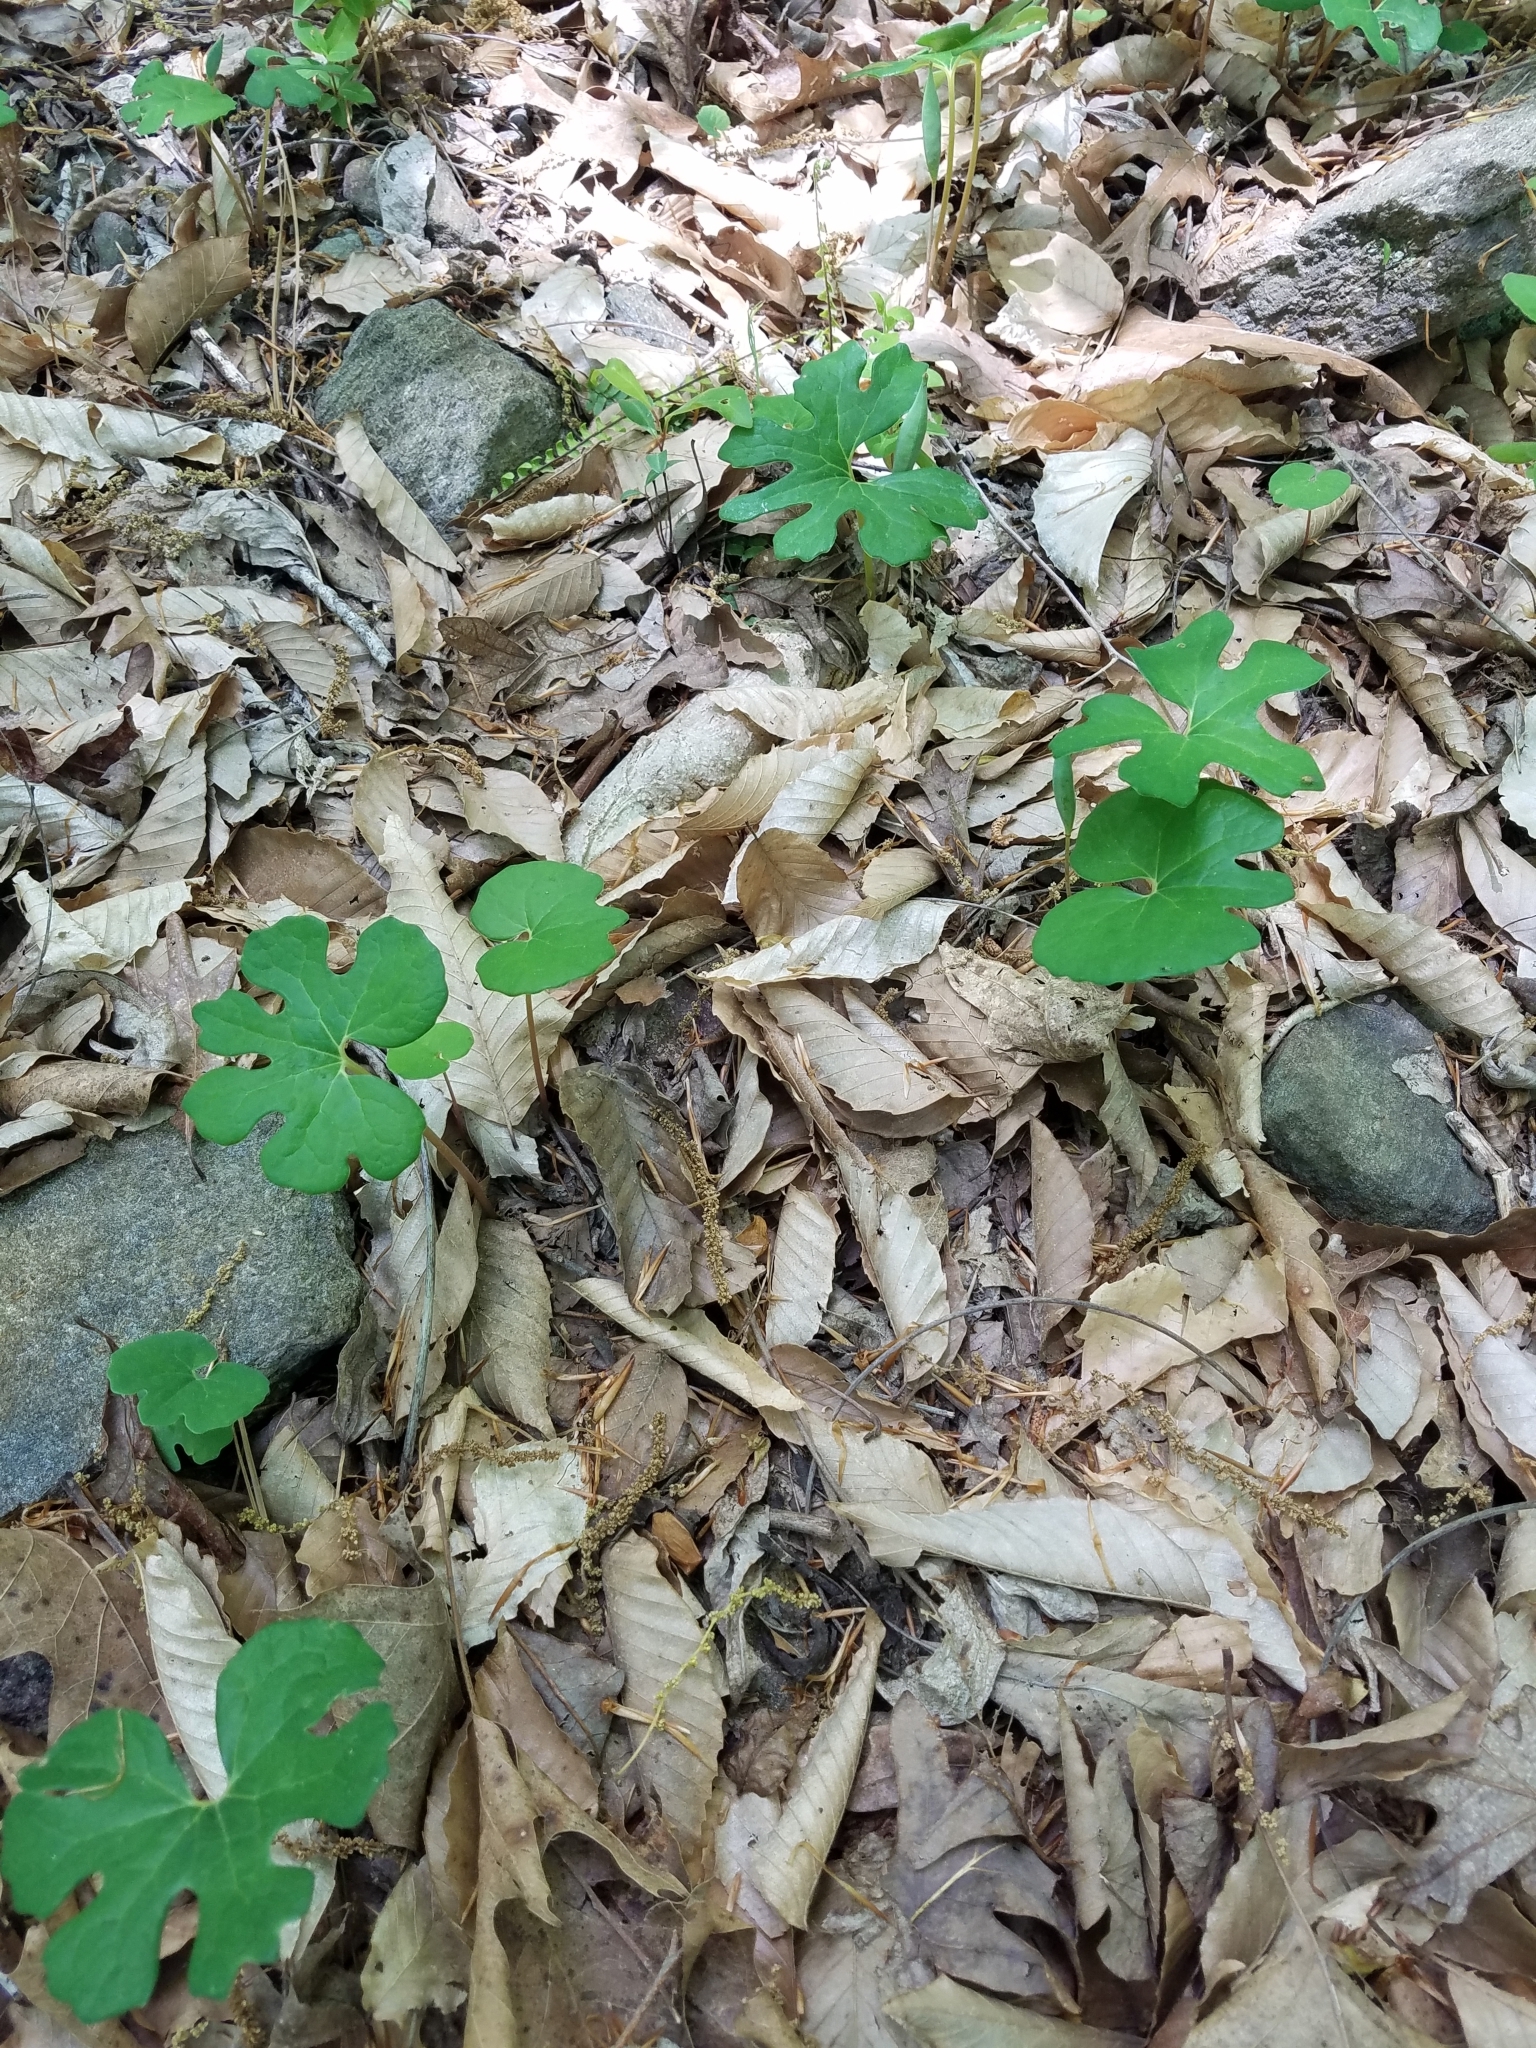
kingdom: Plantae
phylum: Tracheophyta
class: Magnoliopsida
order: Ranunculales
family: Papaveraceae
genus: Sanguinaria
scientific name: Sanguinaria canadensis
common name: Bloodroot
